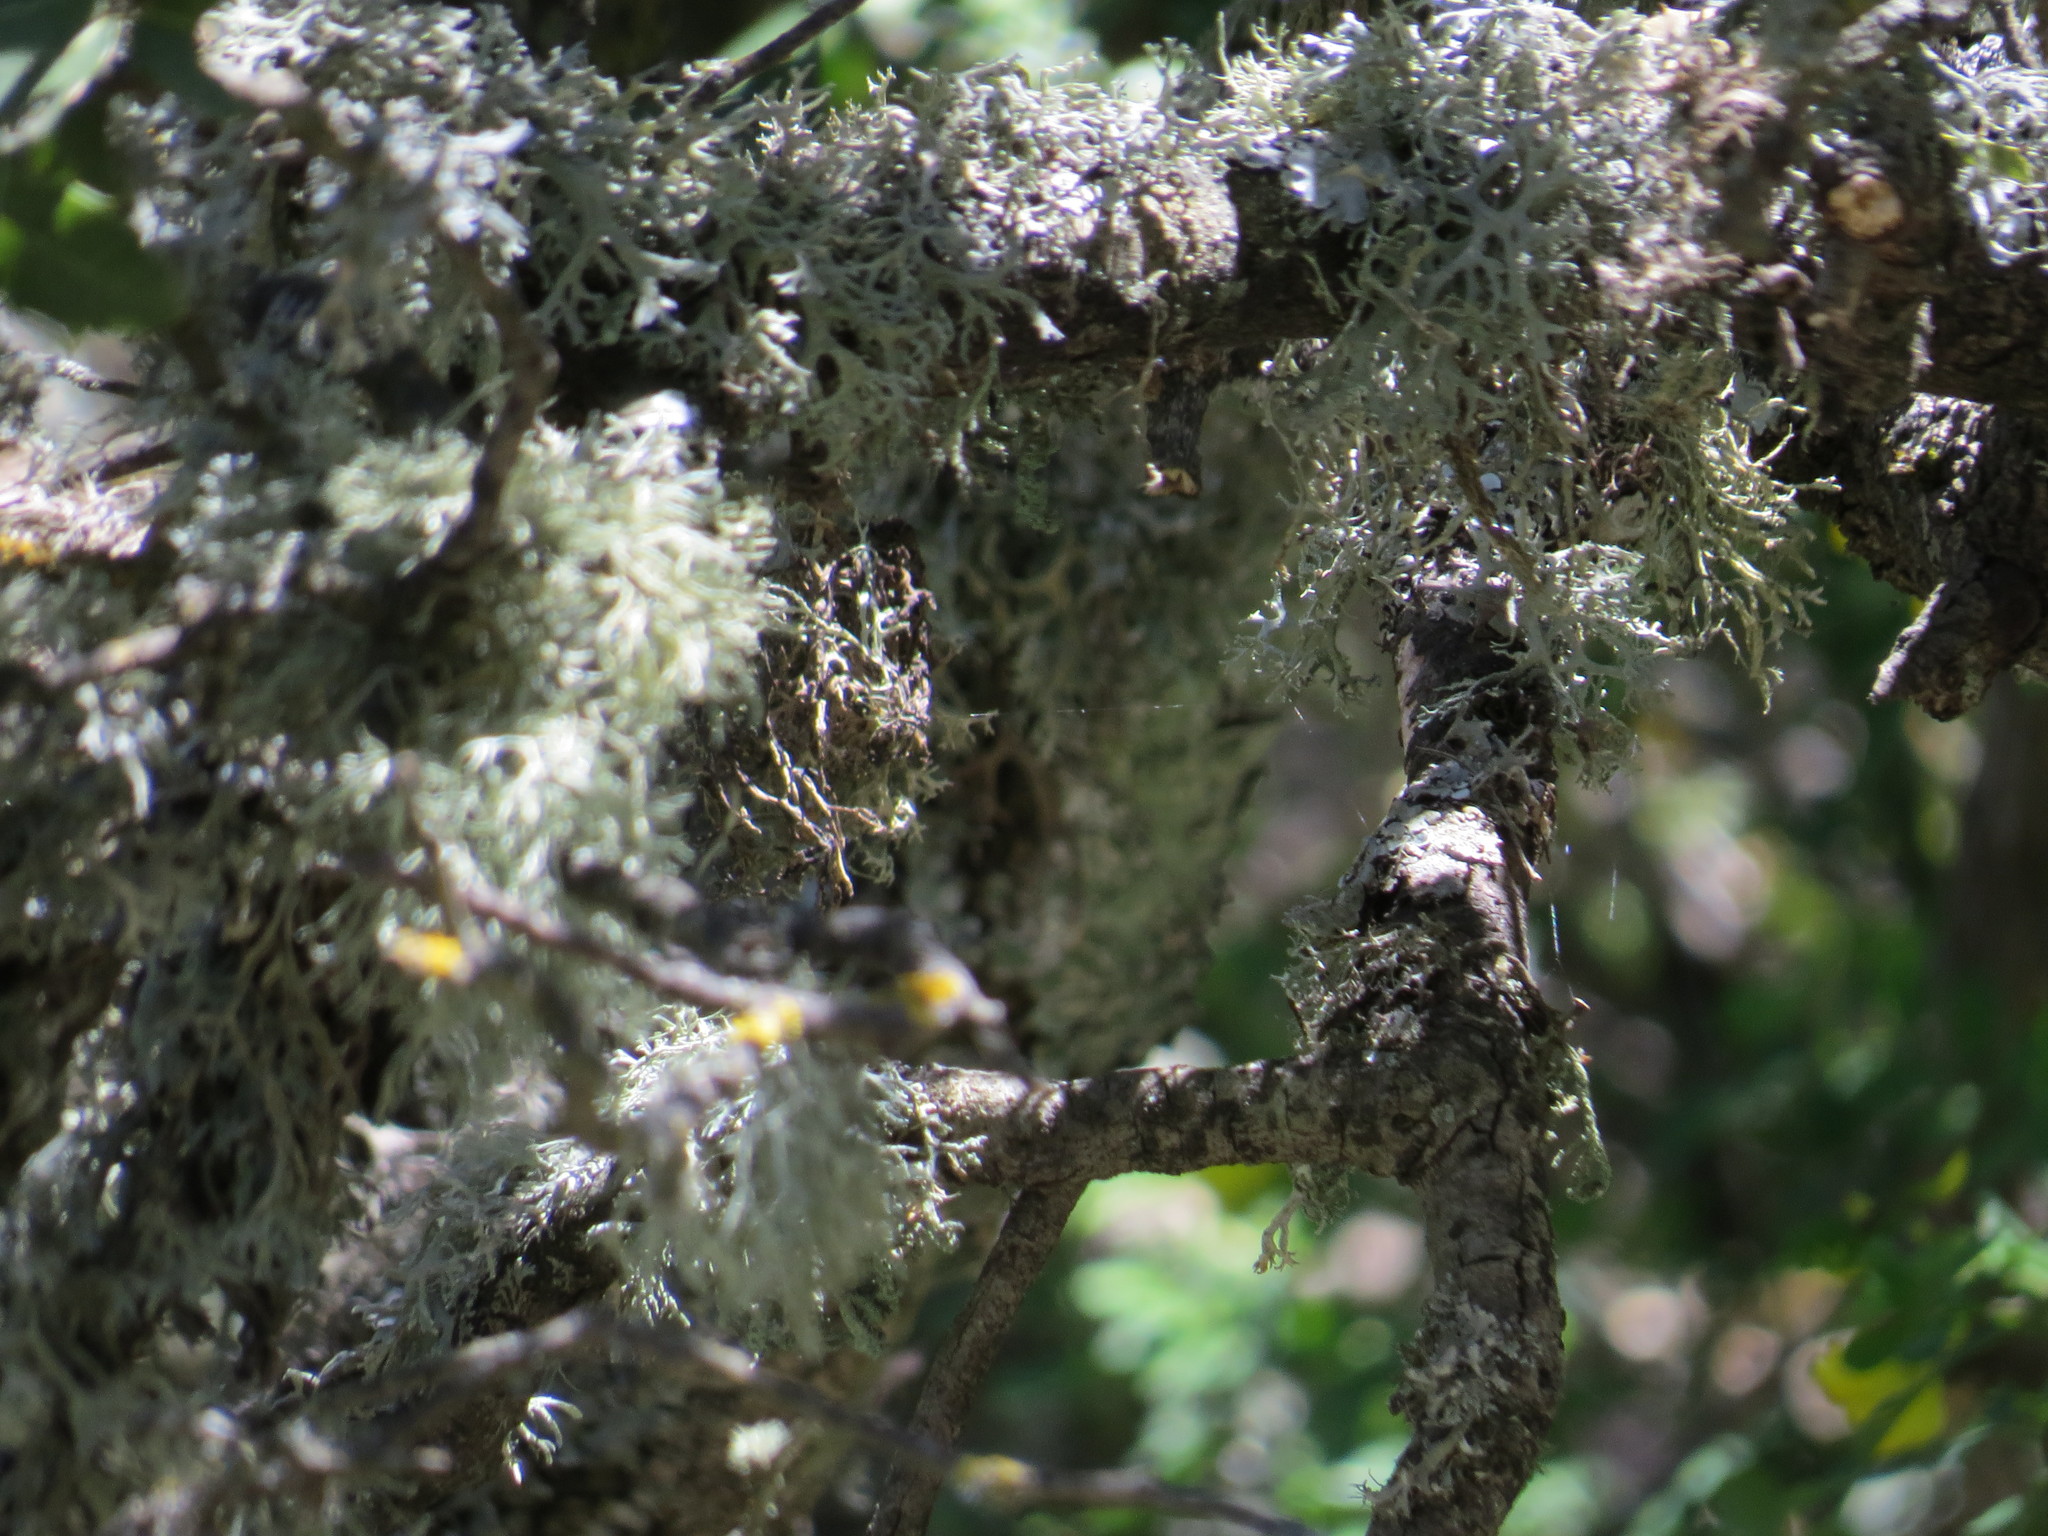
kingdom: Animalia
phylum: Chordata
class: Aves
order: Passeriformes
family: Paridae
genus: Periparus
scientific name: Periparus ater
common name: Coal tit
